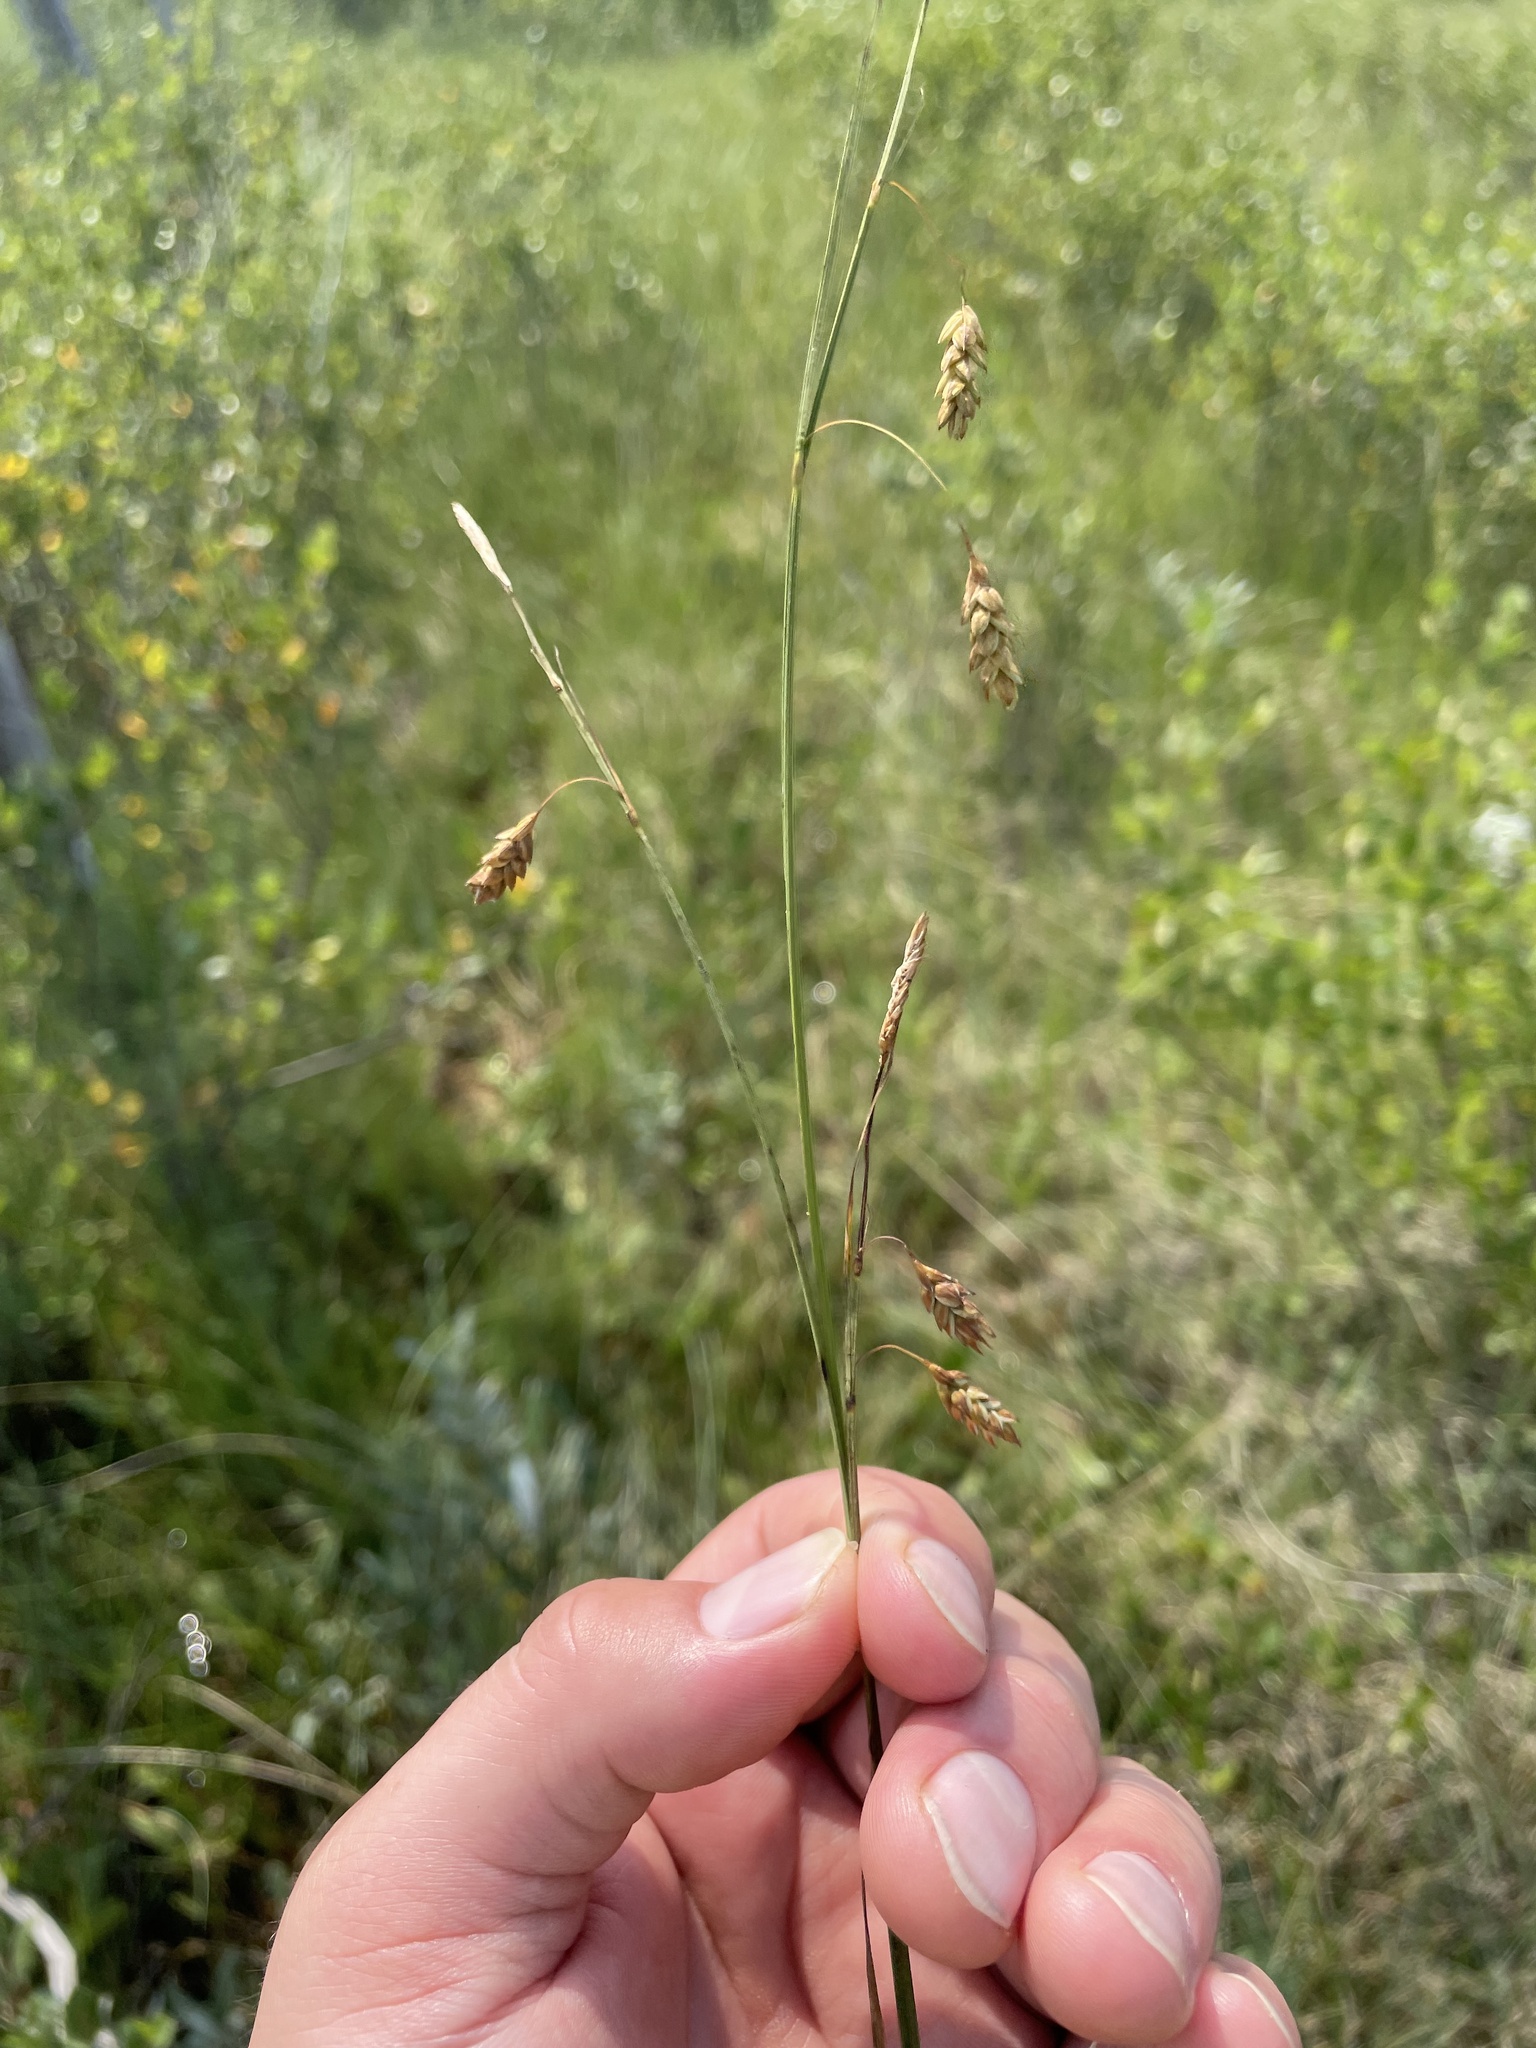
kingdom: Plantae
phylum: Tracheophyta
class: Liliopsida
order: Poales
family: Cyperaceae
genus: Carex
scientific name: Carex limosa
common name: Bog sedge
